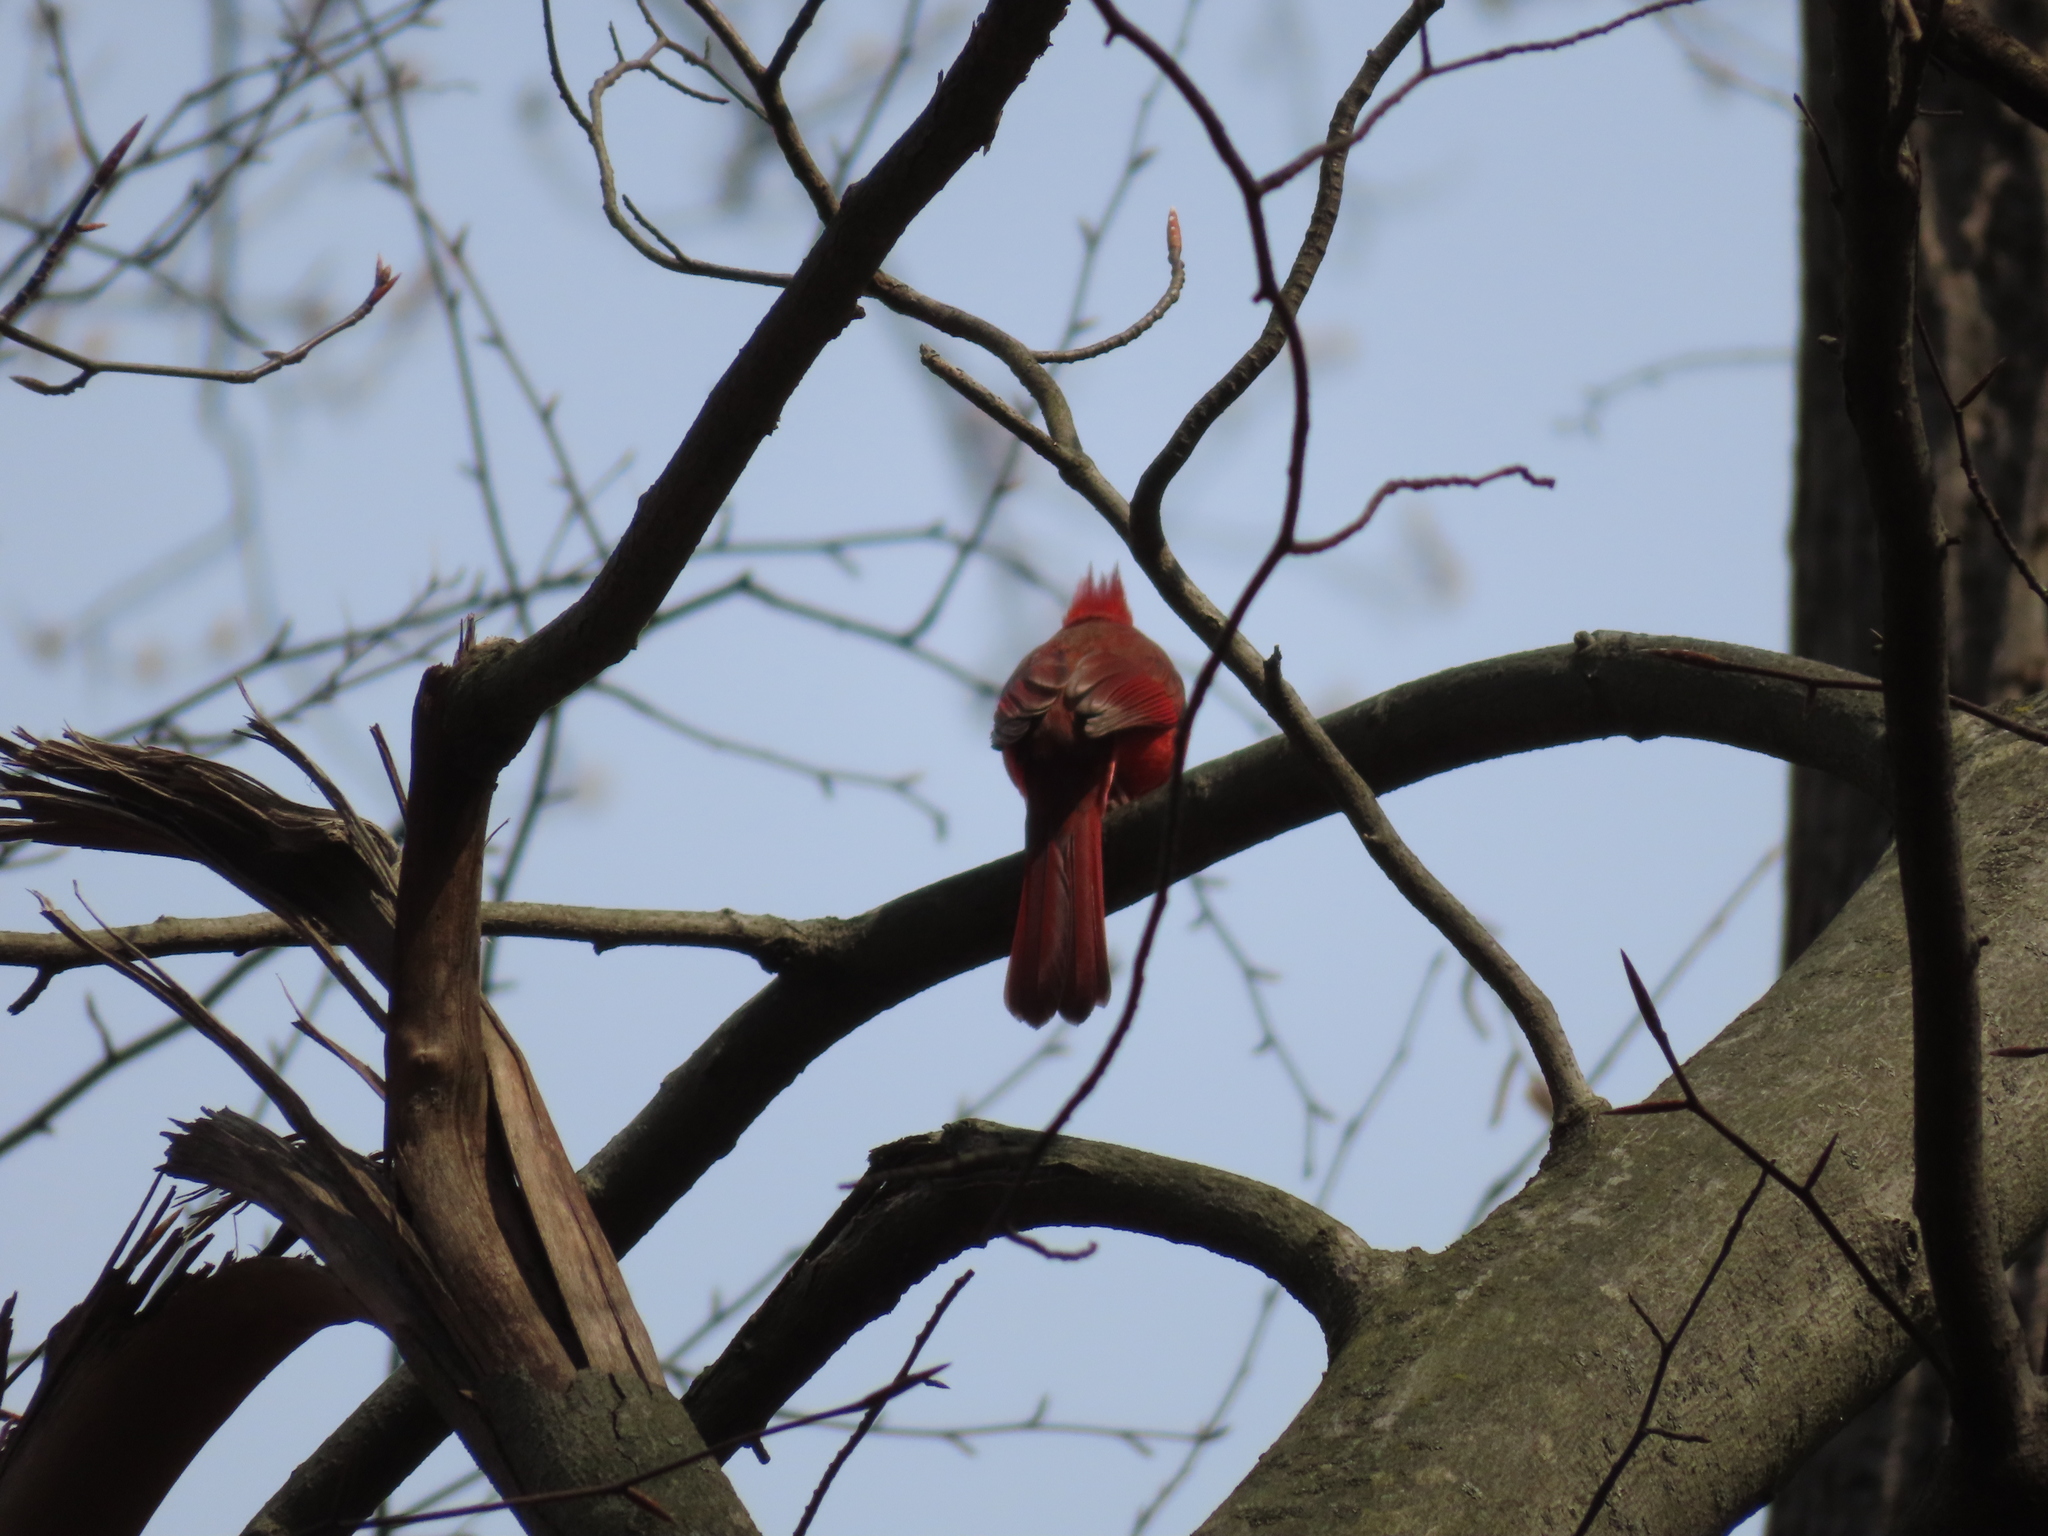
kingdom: Animalia
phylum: Chordata
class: Aves
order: Passeriformes
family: Cardinalidae
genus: Cardinalis
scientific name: Cardinalis cardinalis
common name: Northern cardinal
